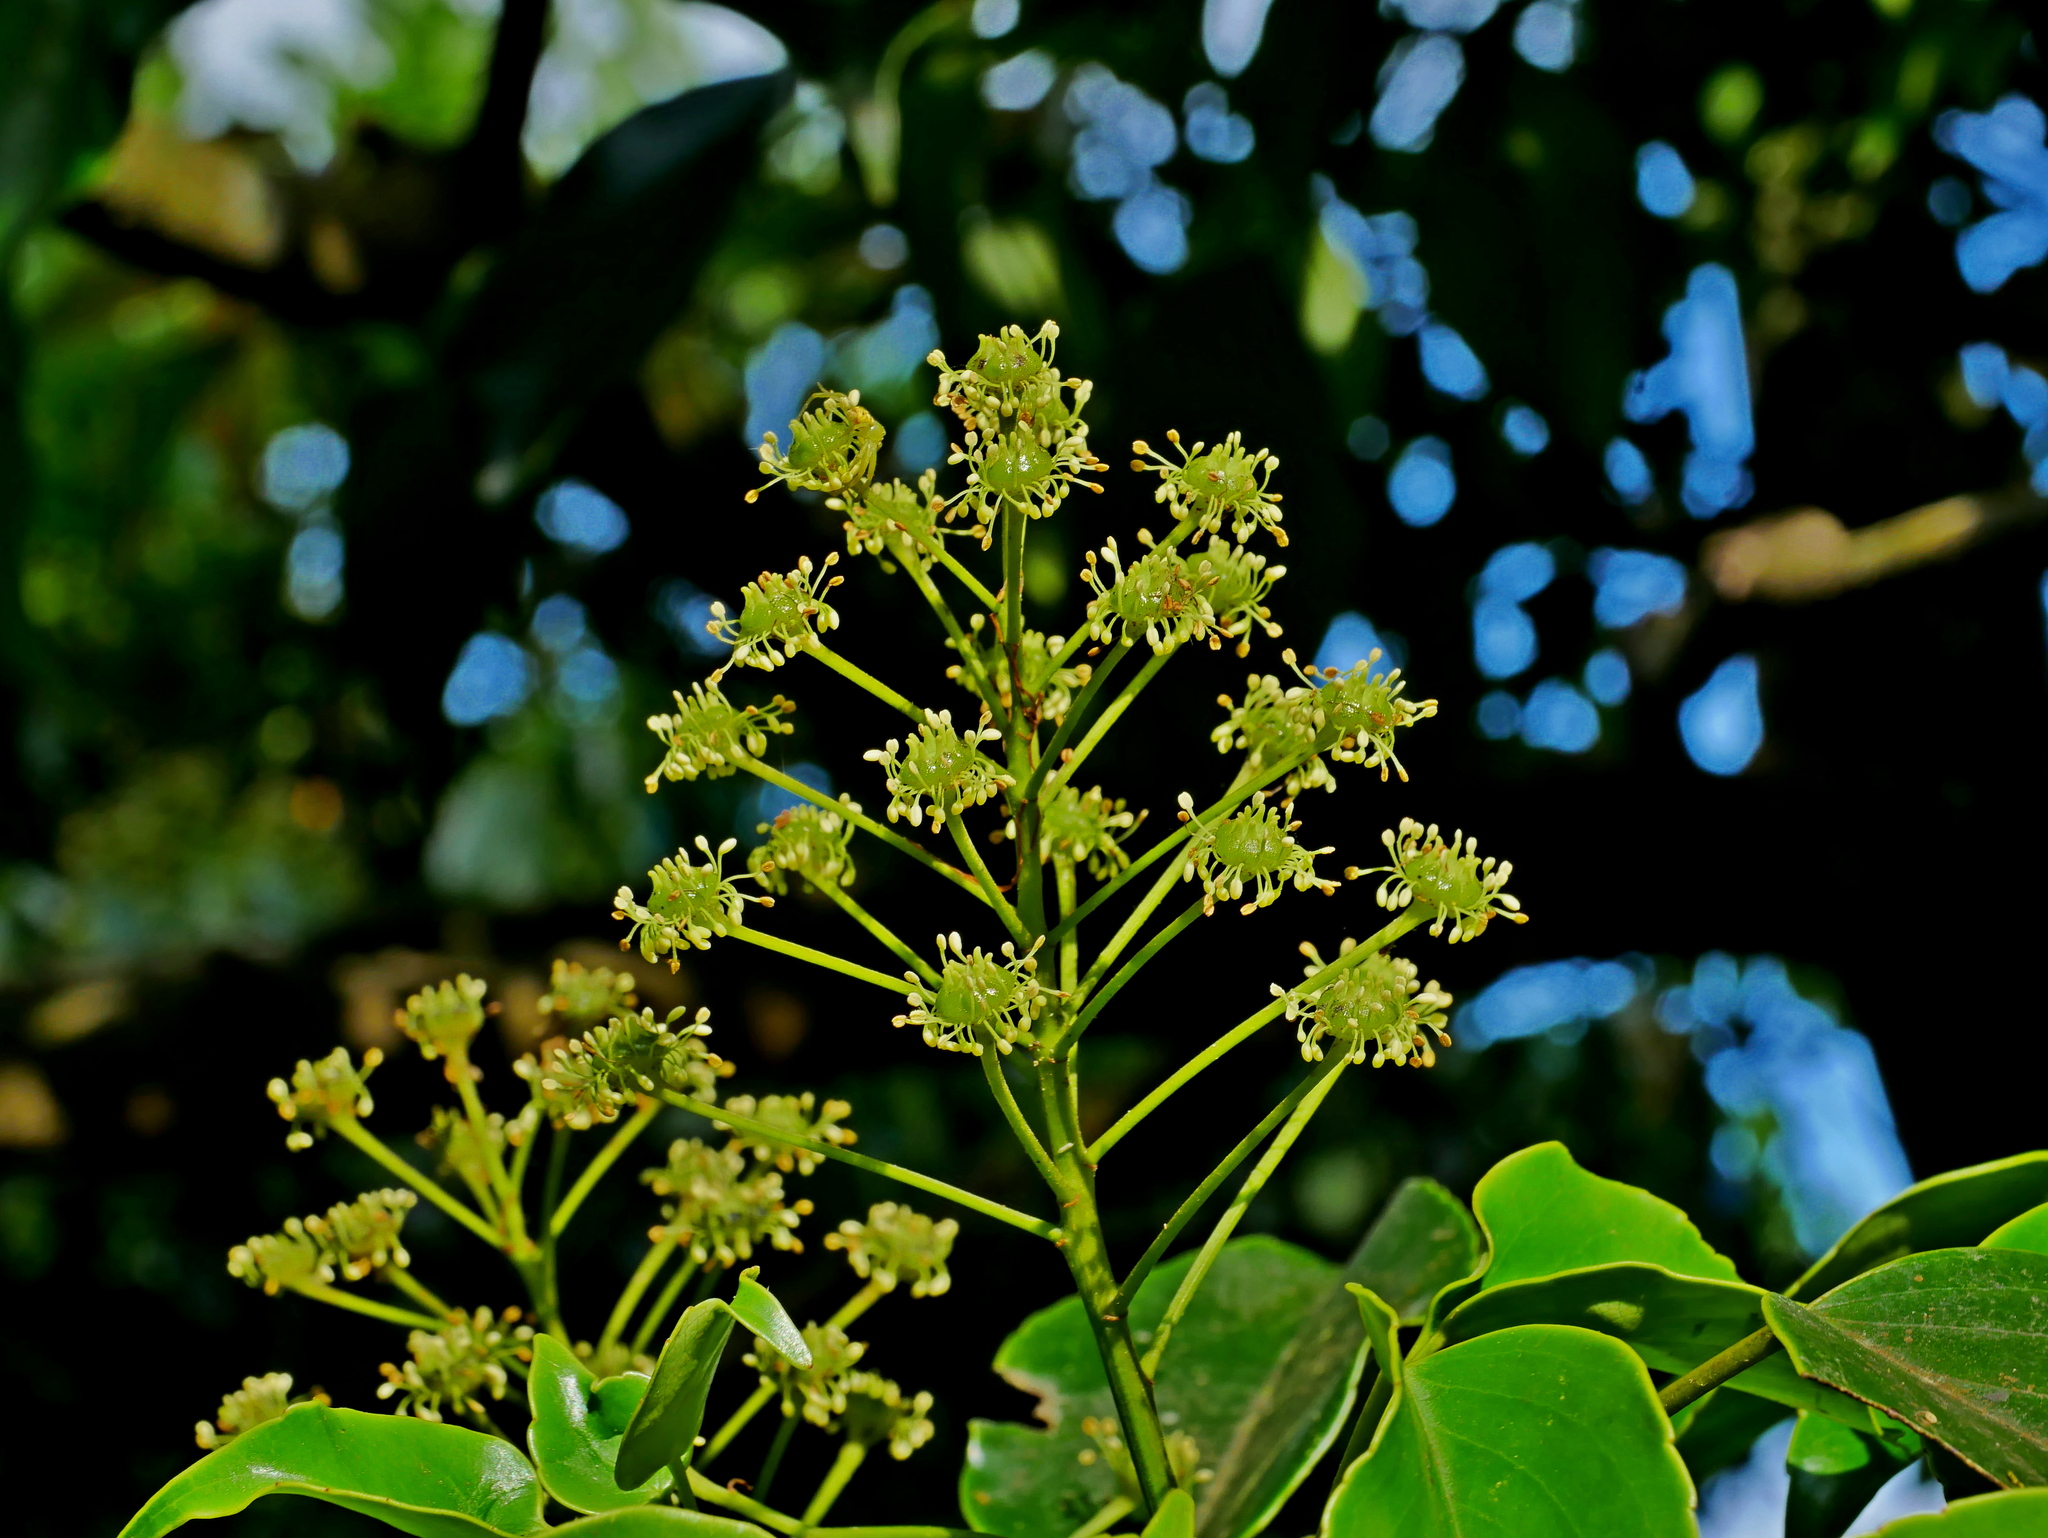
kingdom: Plantae
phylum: Tracheophyta
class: Magnoliopsida
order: Trochodendrales
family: Trochodendraceae
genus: Trochodendron
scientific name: Trochodendron aralioides
